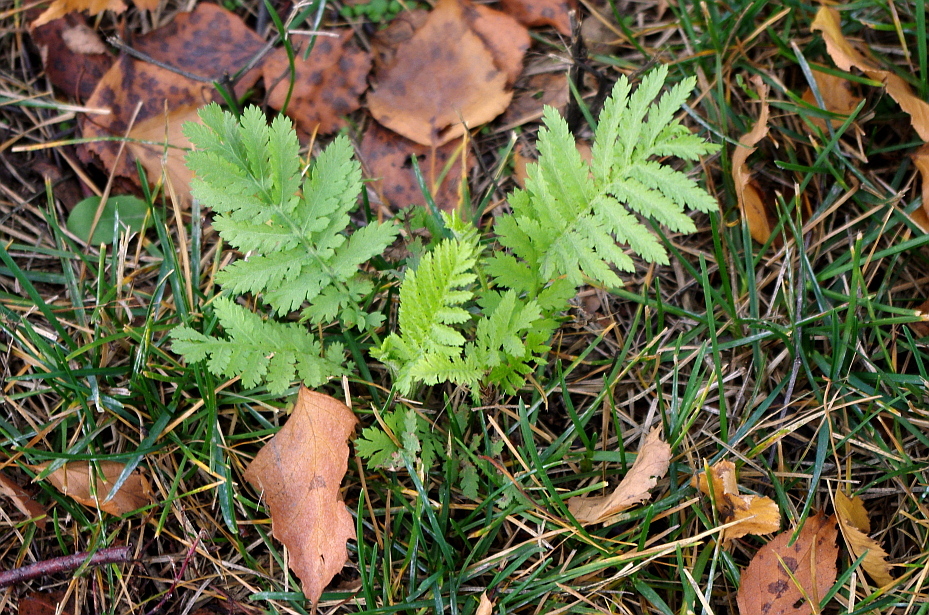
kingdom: Plantae
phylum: Tracheophyta
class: Magnoliopsida
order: Asterales
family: Asteraceae
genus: Tanacetum
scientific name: Tanacetum vulgare
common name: Common tansy
